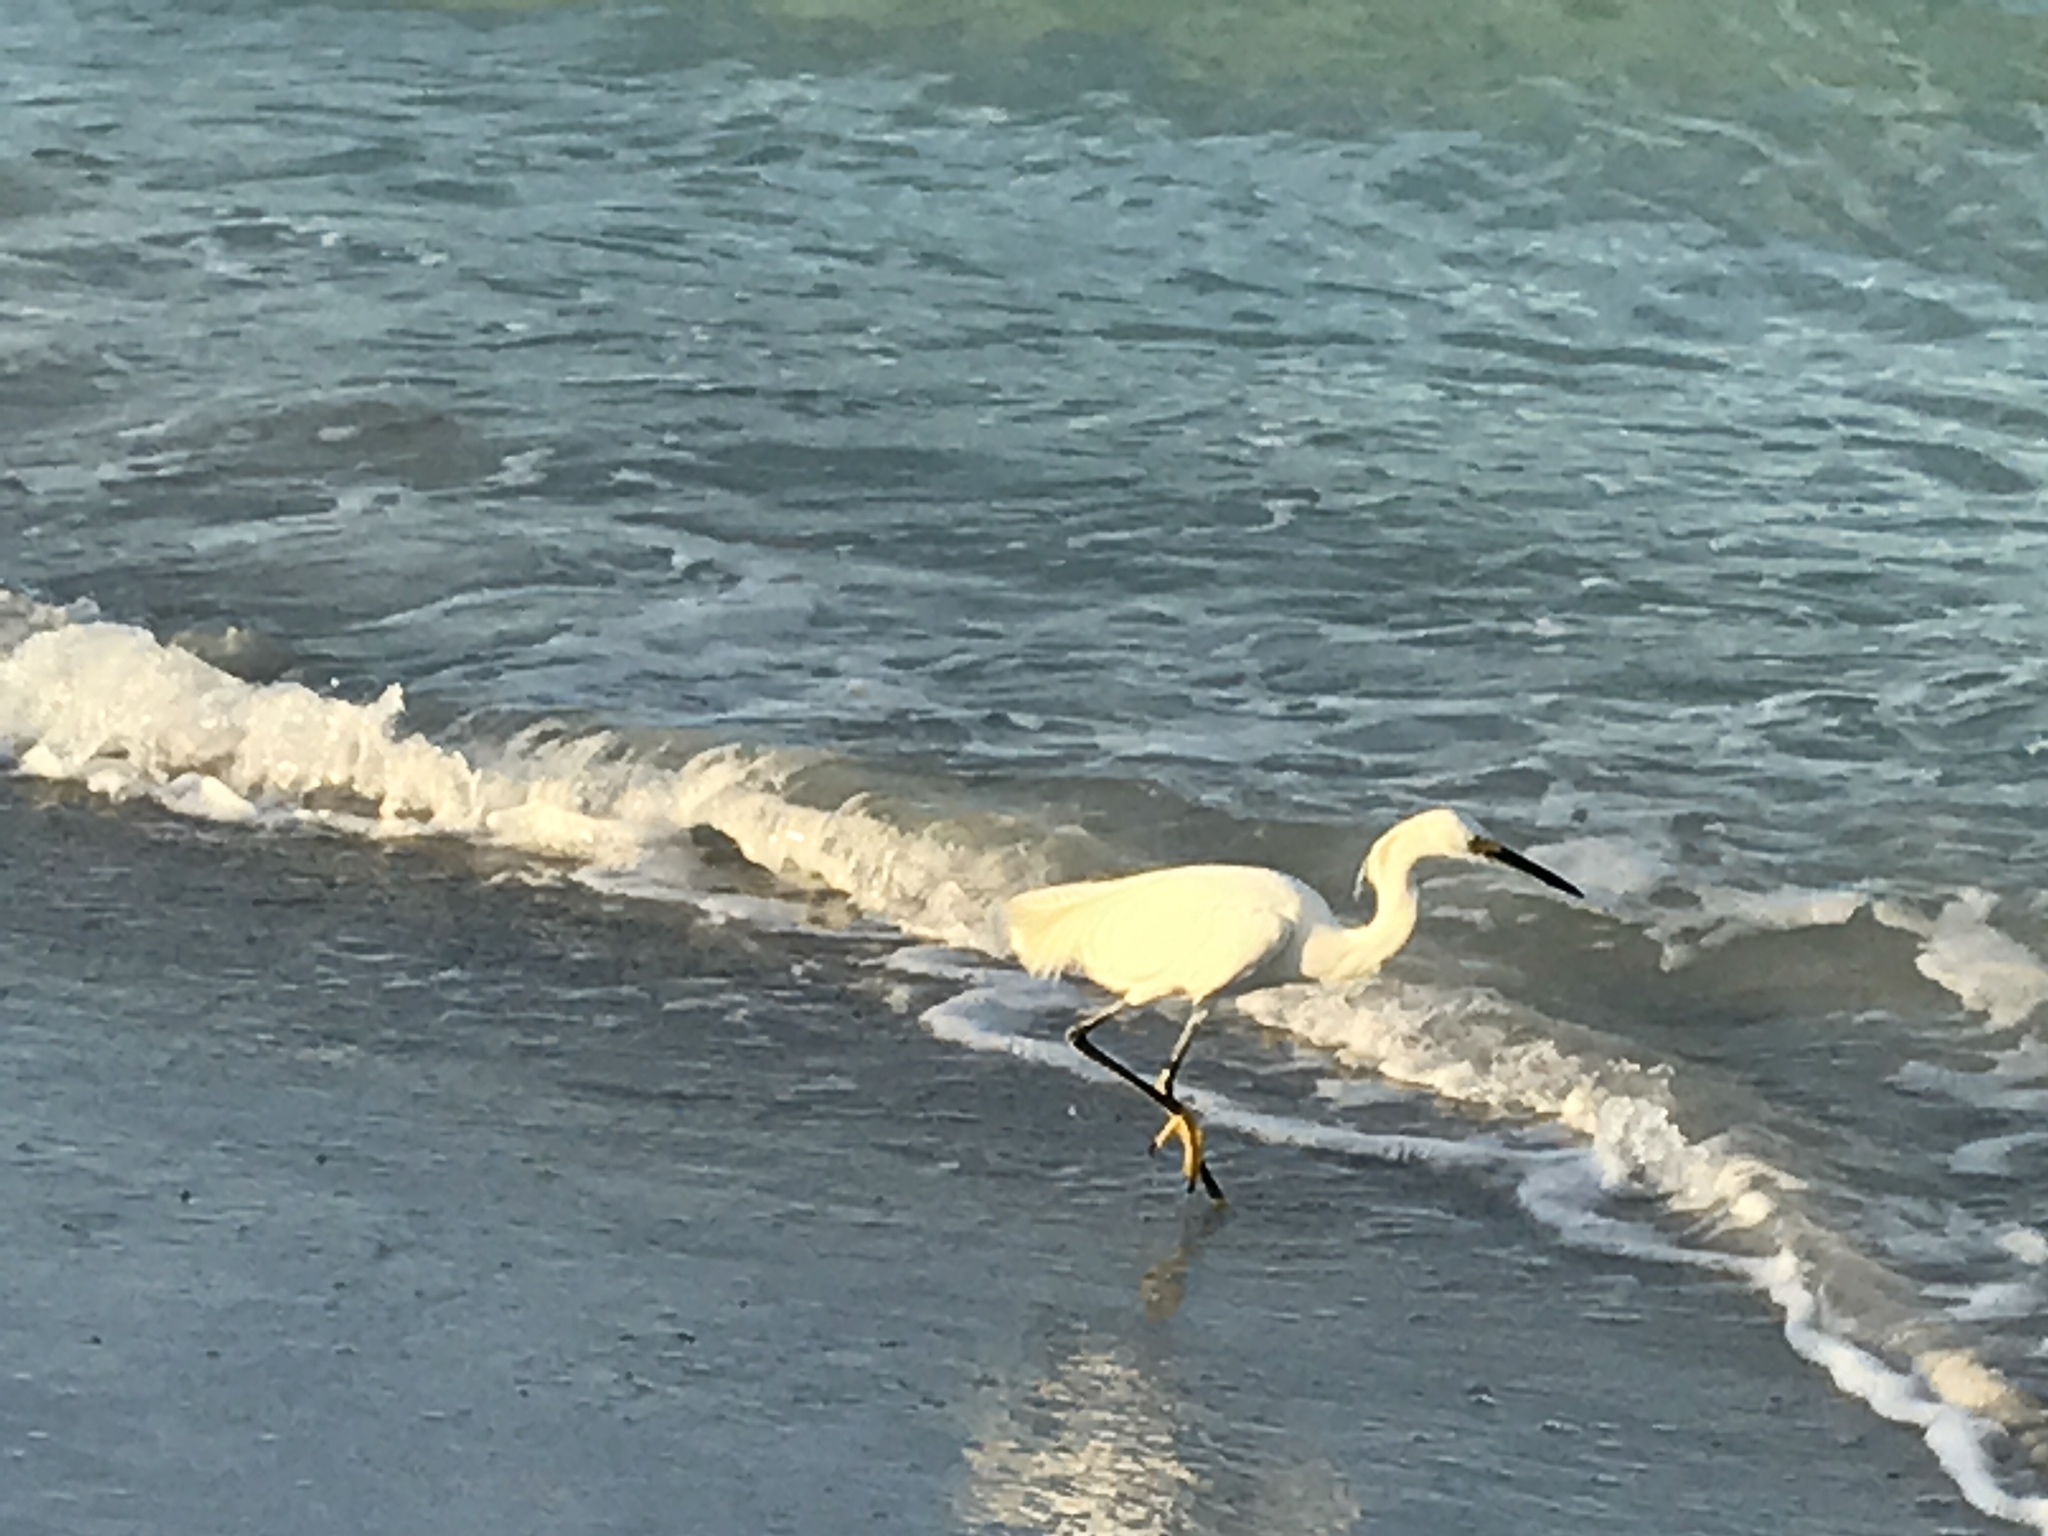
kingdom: Animalia
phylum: Chordata
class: Aves
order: Pelecaniformes
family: Ardeidae
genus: Egretta
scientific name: Egretta thula
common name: Snowy egret
